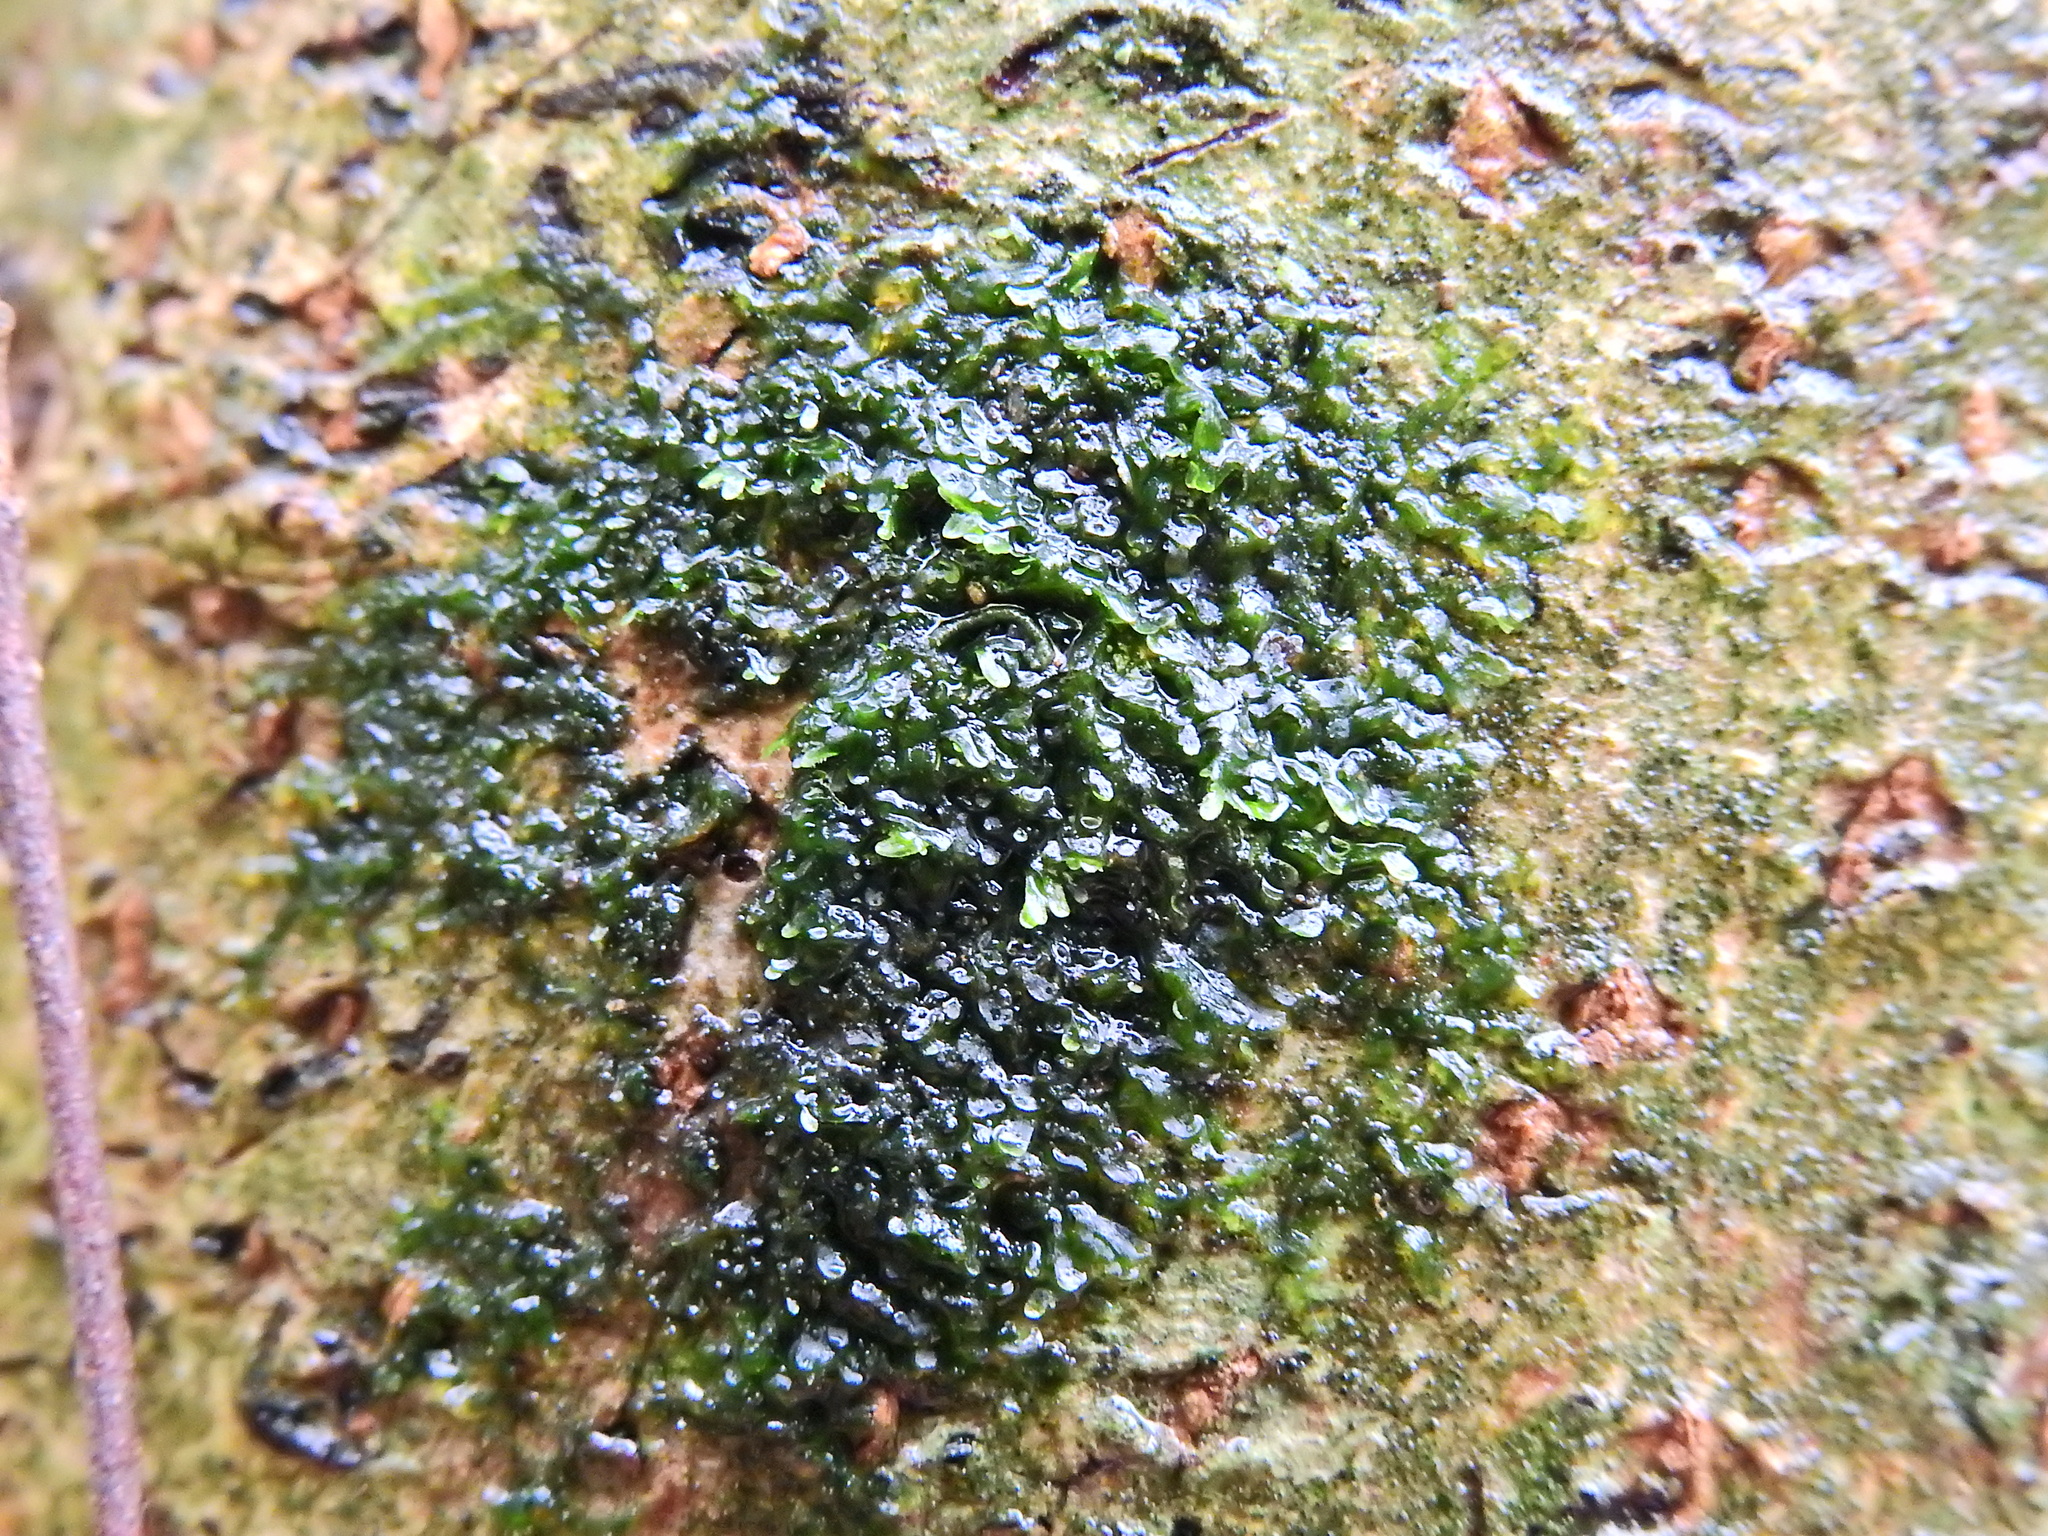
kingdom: Plantae
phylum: Marchantiophyta
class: Jungermanniopsida
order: Metzgeriales
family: Metzgeriaceae
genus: Metzgeria
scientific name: Metzgeria furcata
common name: Forked veilwort
